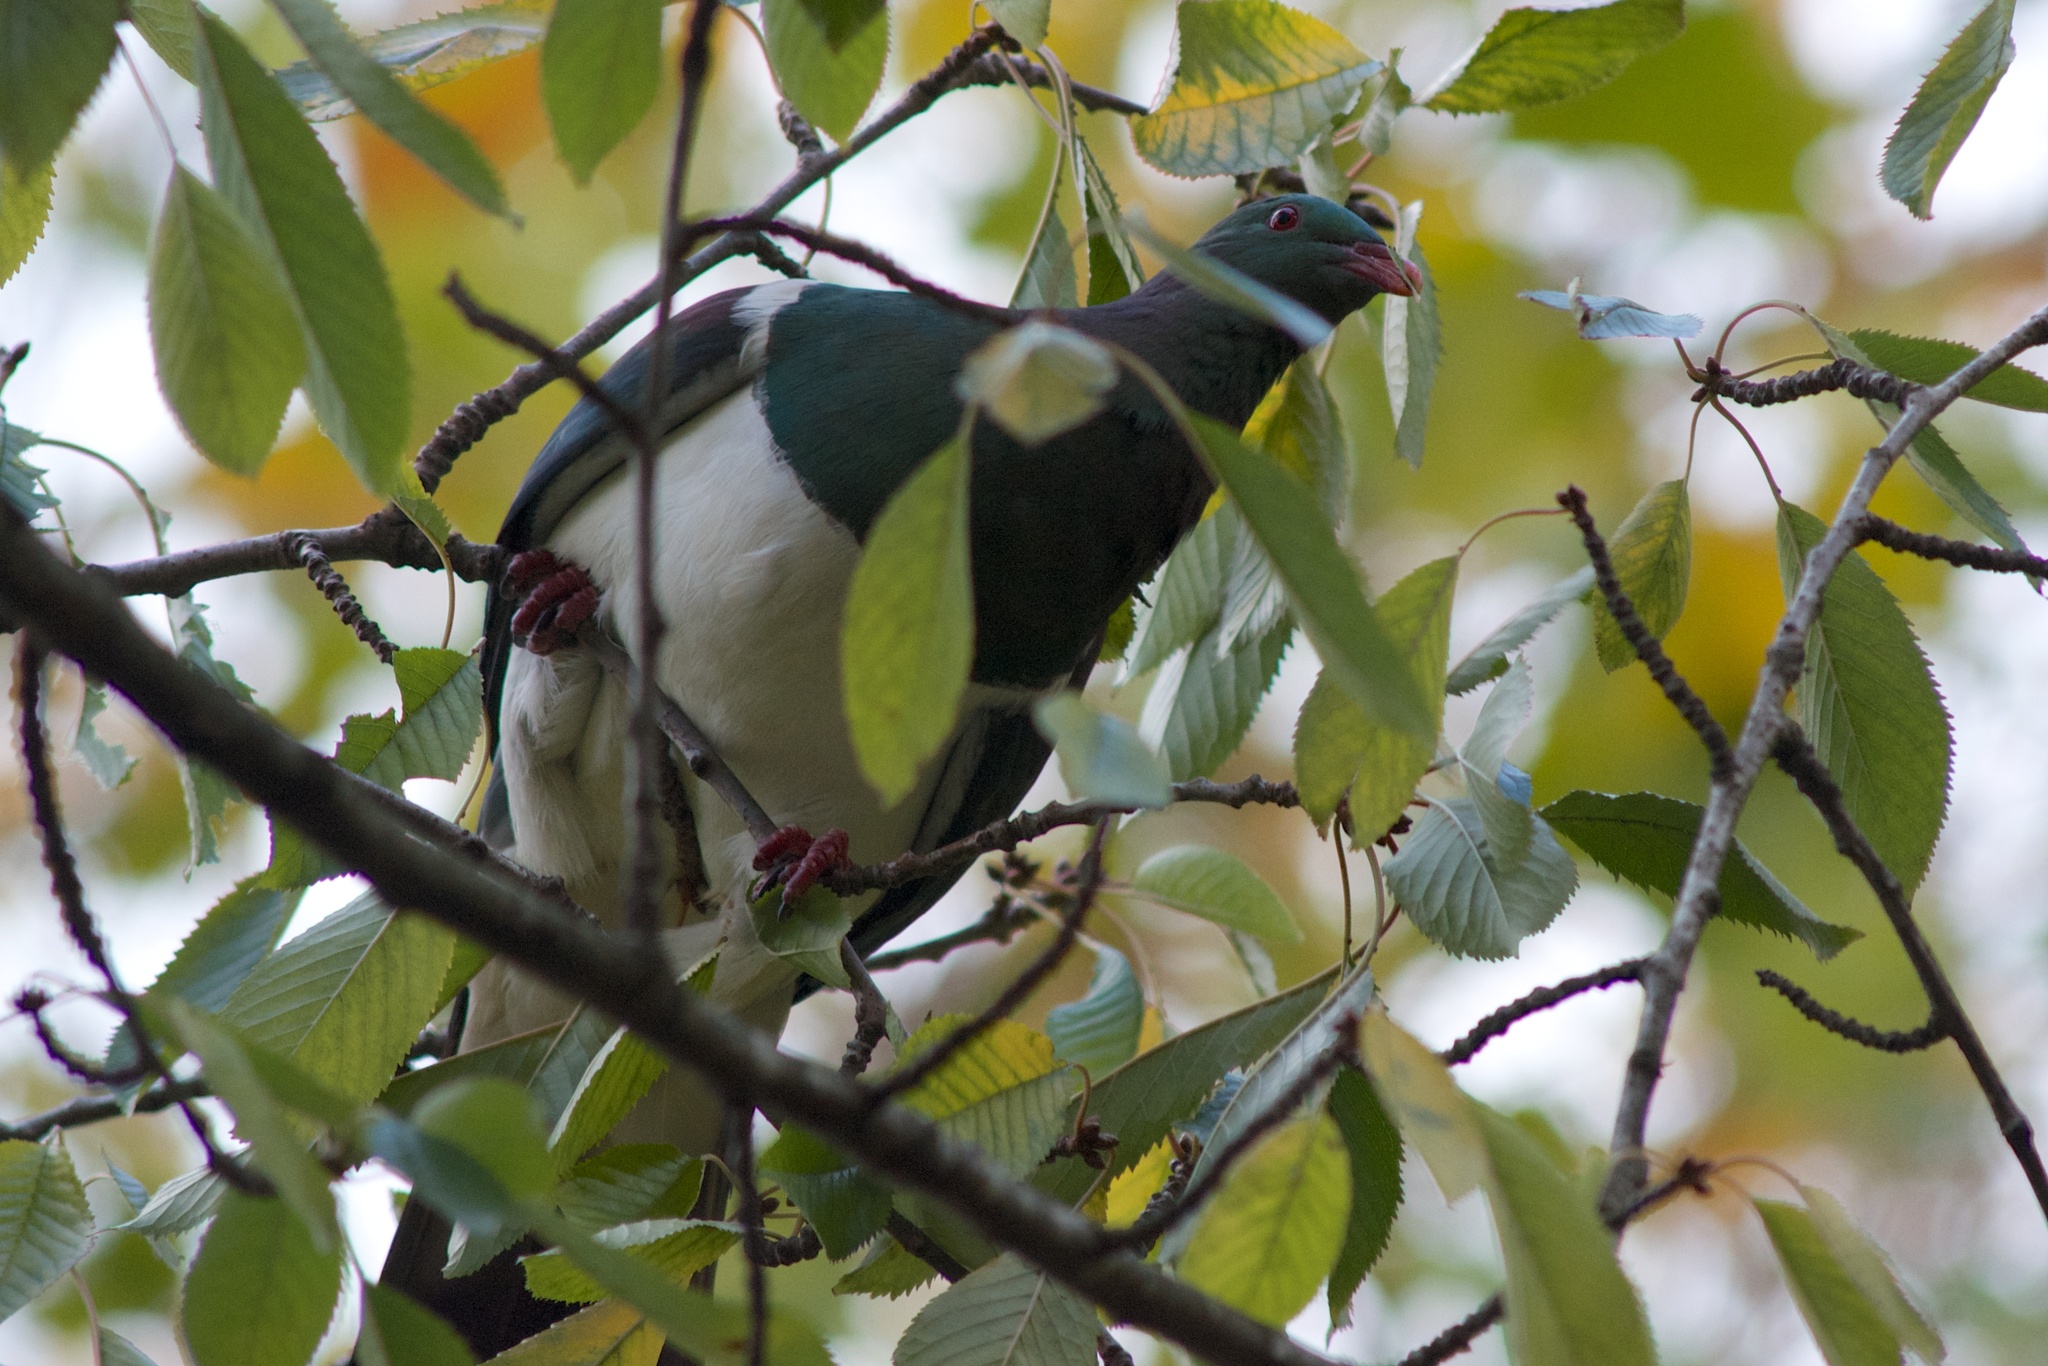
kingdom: Animalia
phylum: Chordata
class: Aves
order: Columbiformes
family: Columbidae
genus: Hemiphaga
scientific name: Hemiphaga novaeseelandiae
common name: New zealand pigeon
